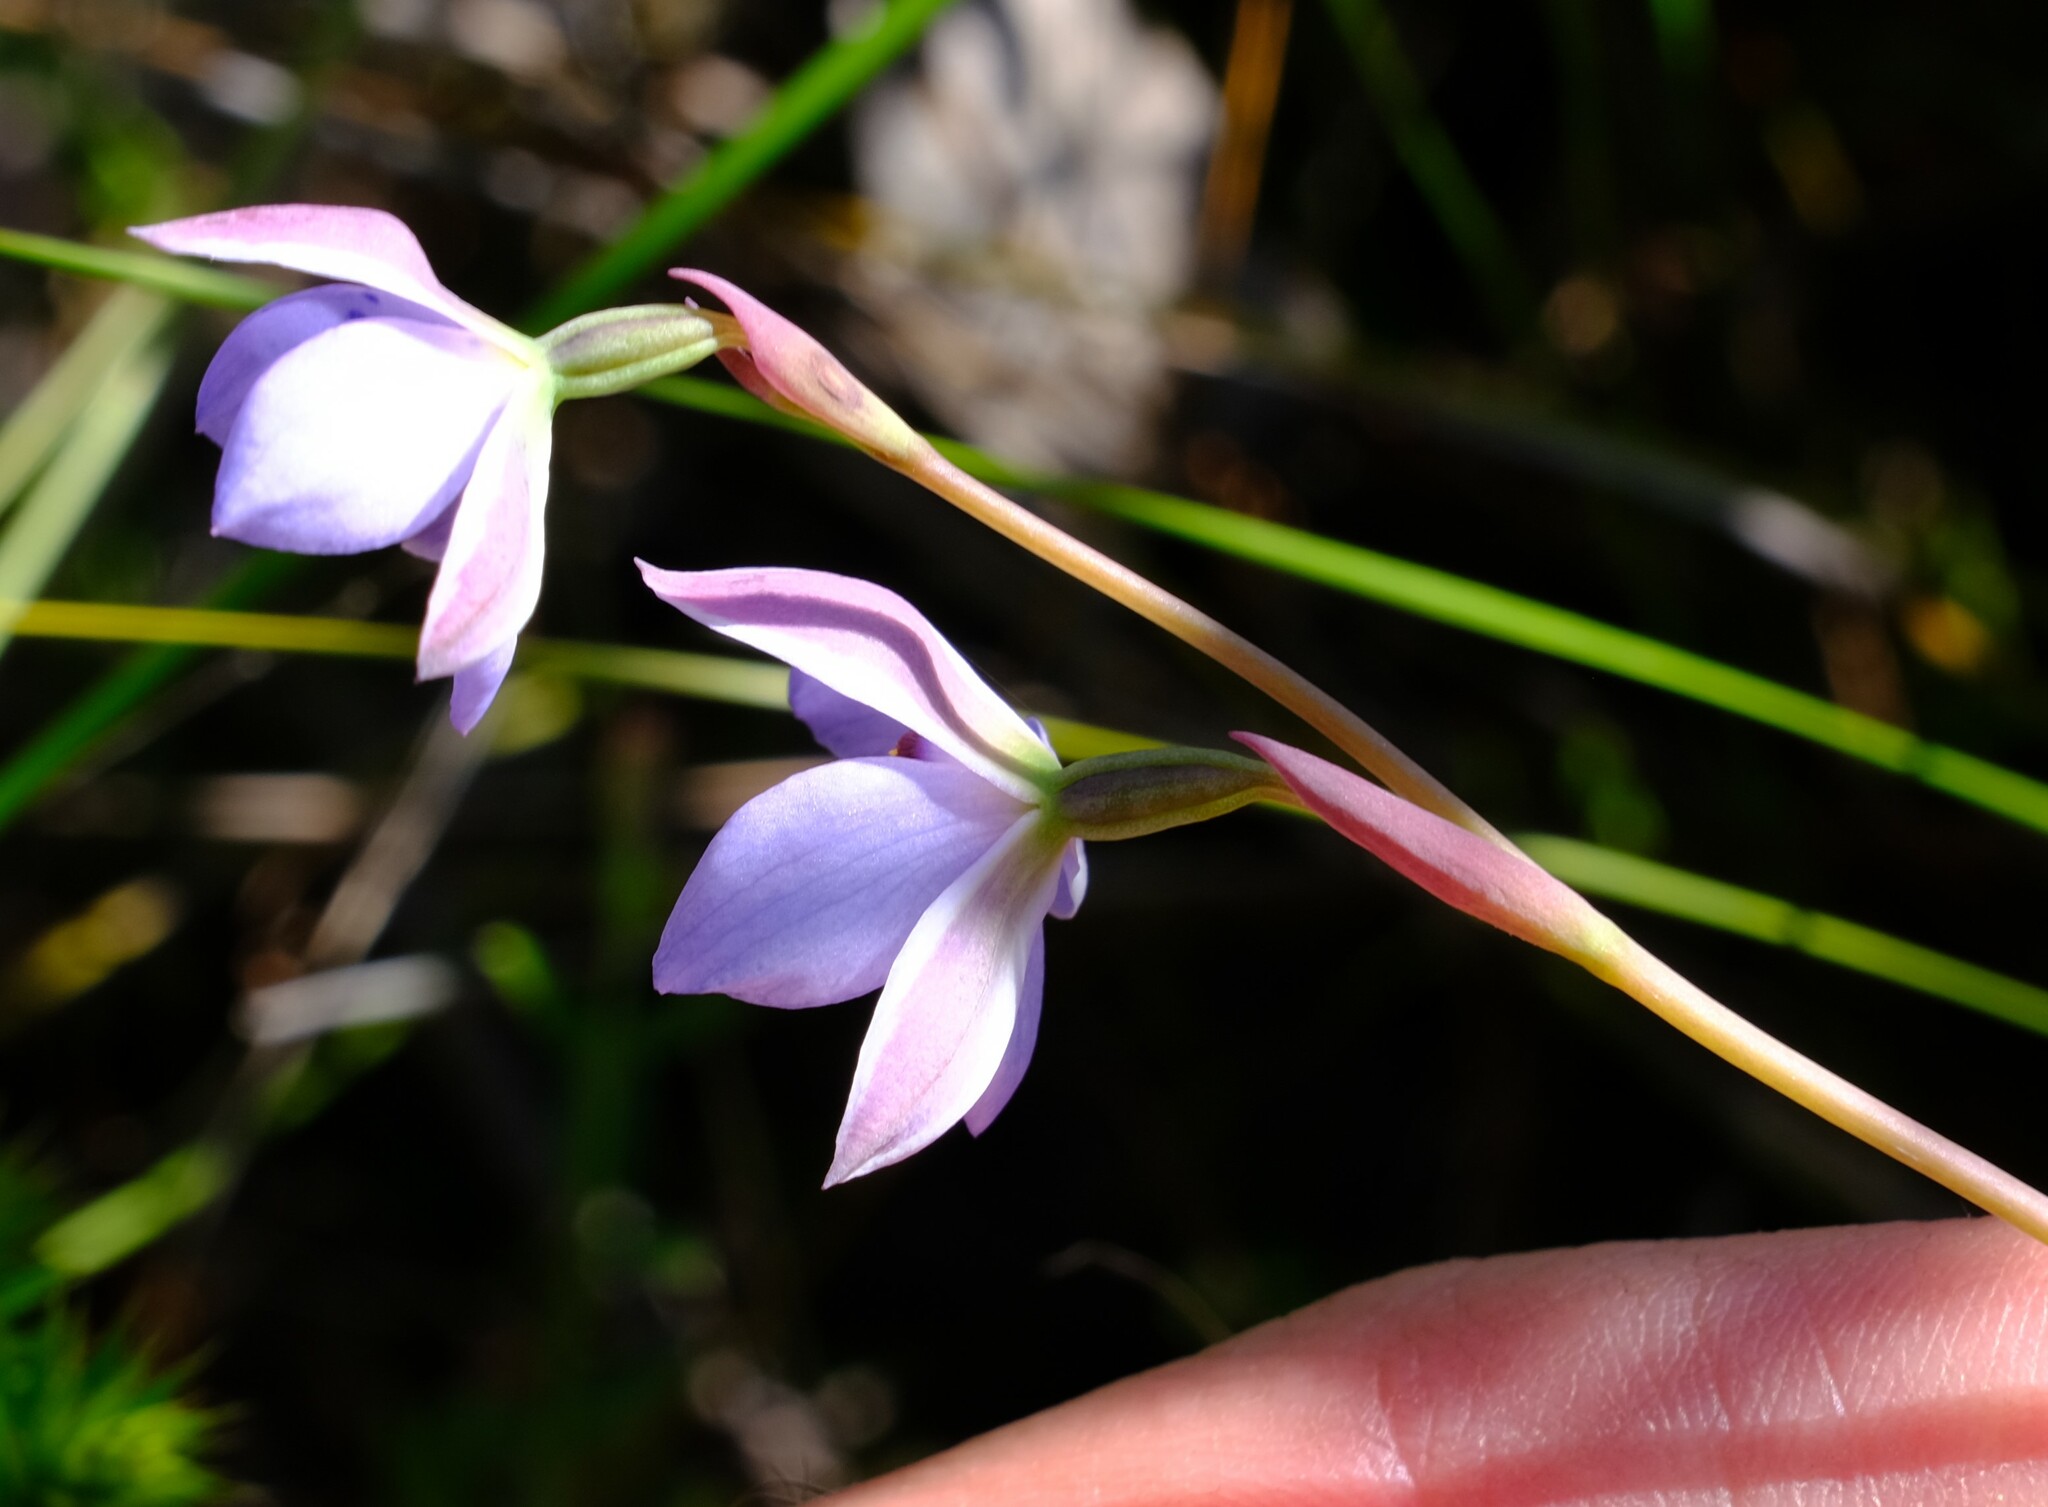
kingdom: Plantae
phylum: Tracheophyta
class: Liliopsida
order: Asparagales
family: Orchidaceae
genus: Thelymitra
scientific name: Thelymitra ixioides
